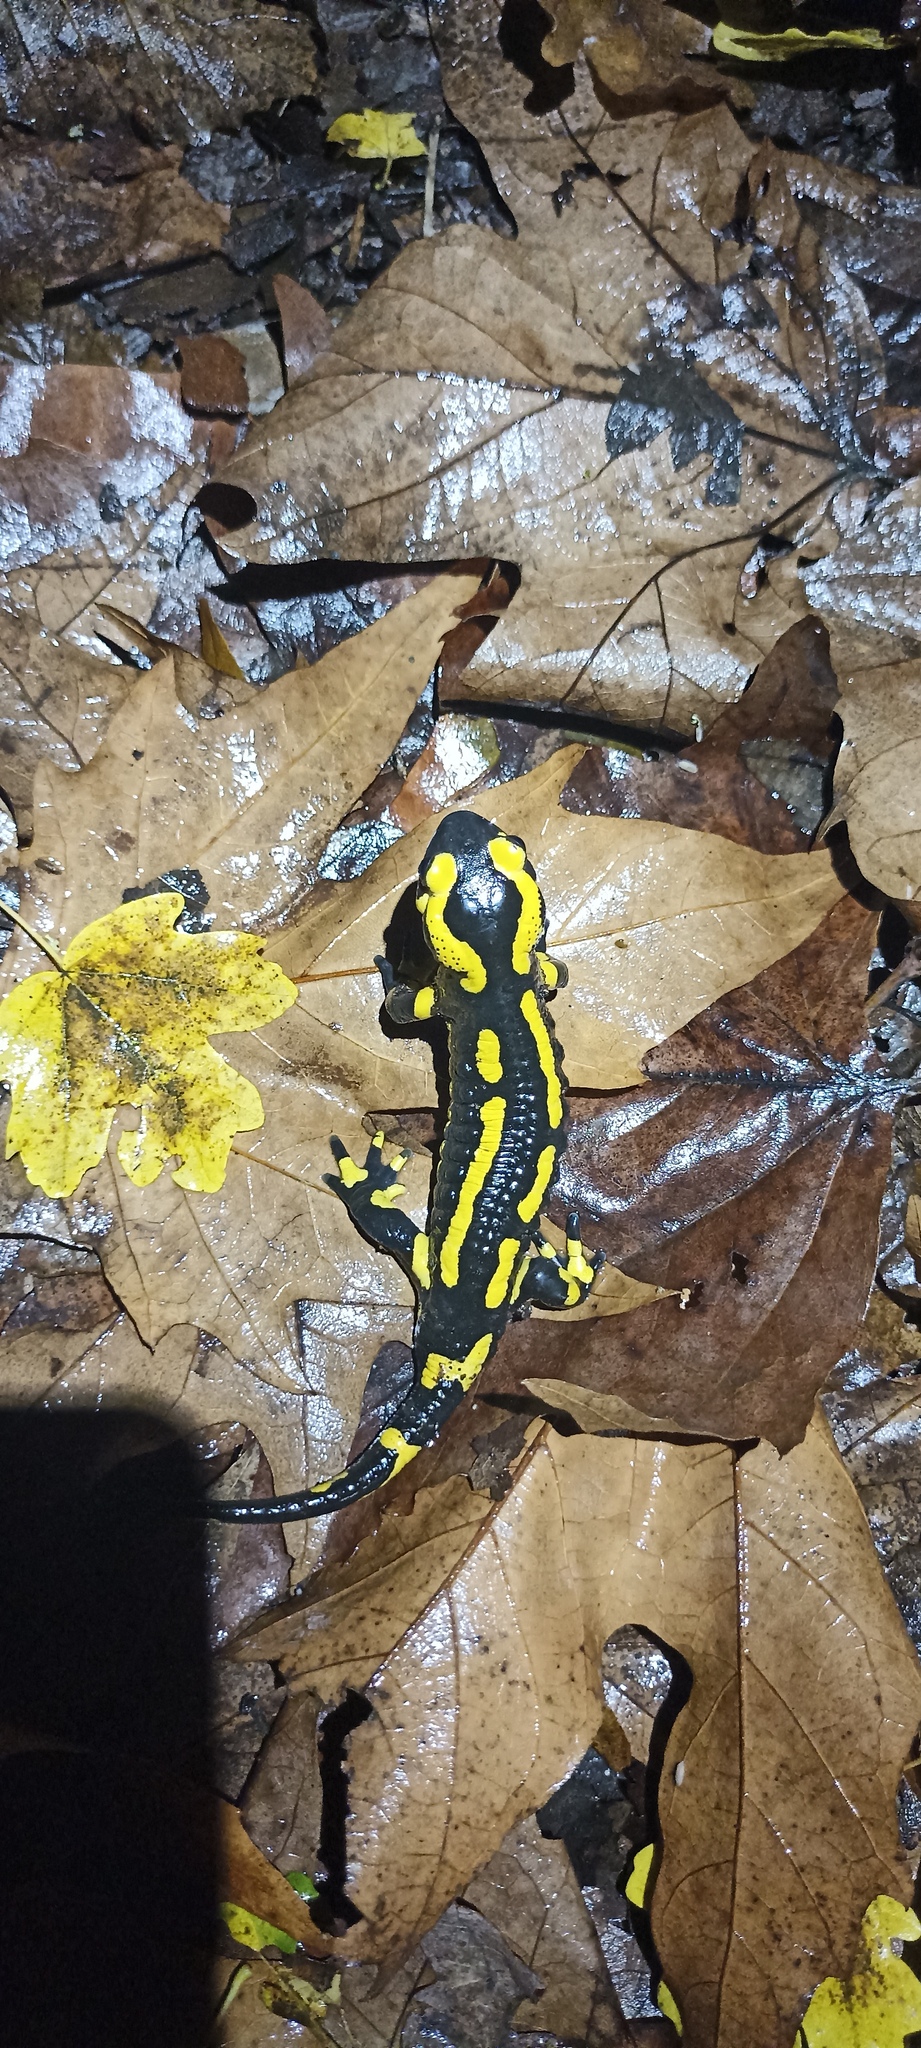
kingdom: Animalia
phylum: Chordata
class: Amphibia
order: Caudata
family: Salamandridae
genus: Salamandra
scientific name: Salamandra salamandra
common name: Fire salamander
